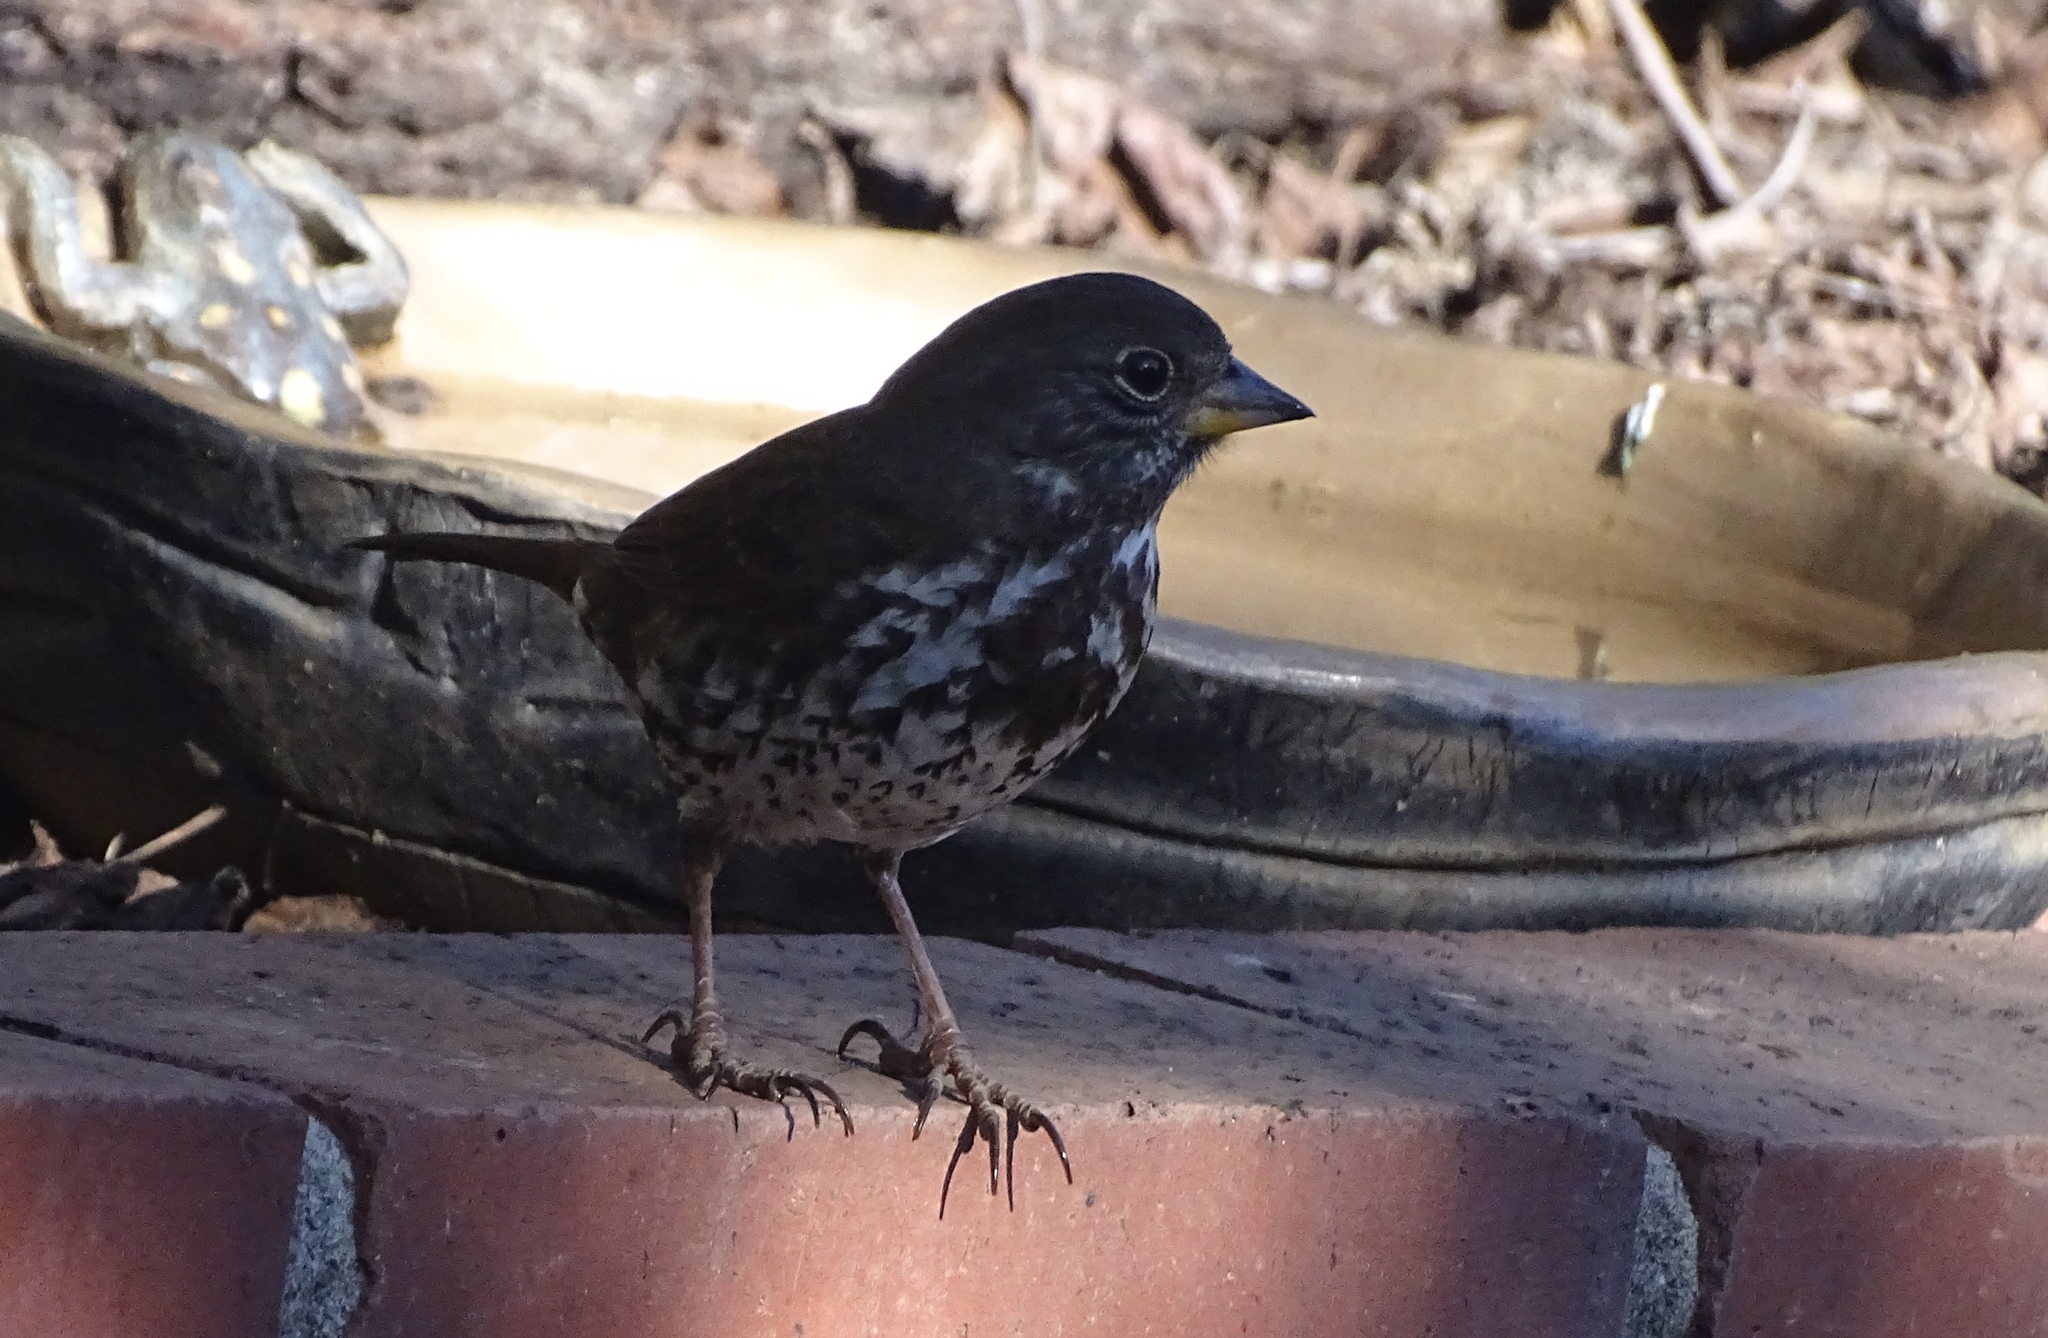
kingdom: Animalia
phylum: Chordata
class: Aves
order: Passeriformes
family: Passerellidae
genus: Passerella
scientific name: Passerella iliaca
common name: Fox sparrow
